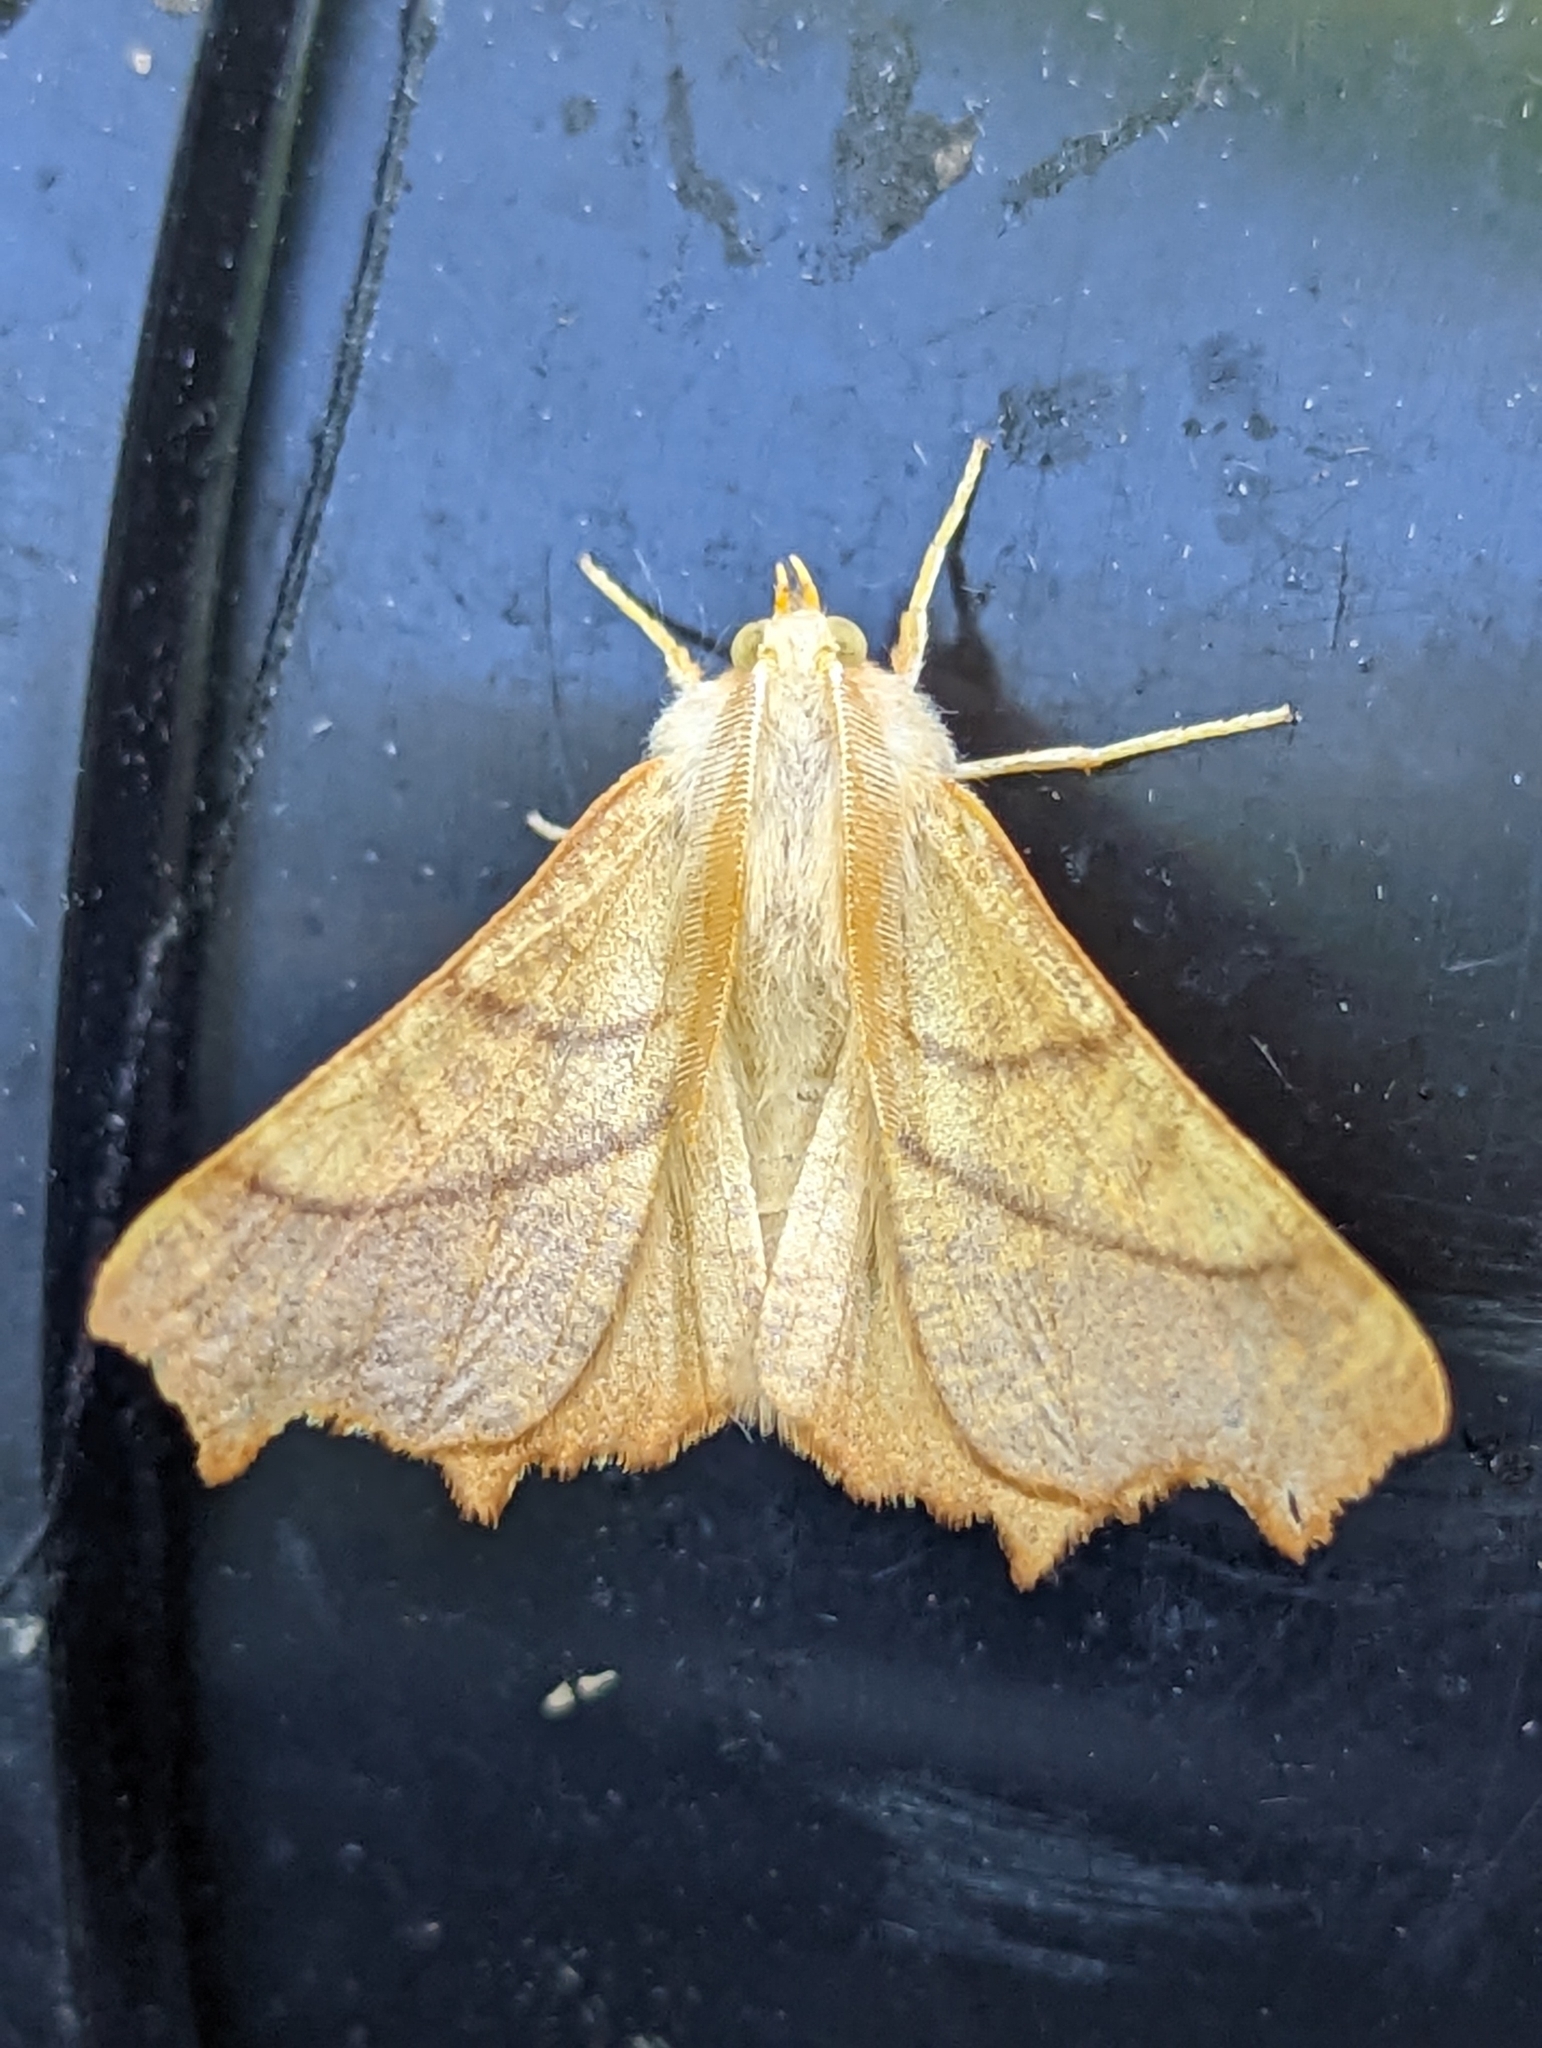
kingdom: Animalia
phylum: Arthropoda
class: Insecta
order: Lepidoptera
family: Geometridae
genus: Ennomos
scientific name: Ennomos fuscantaria
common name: Dusky thorn
